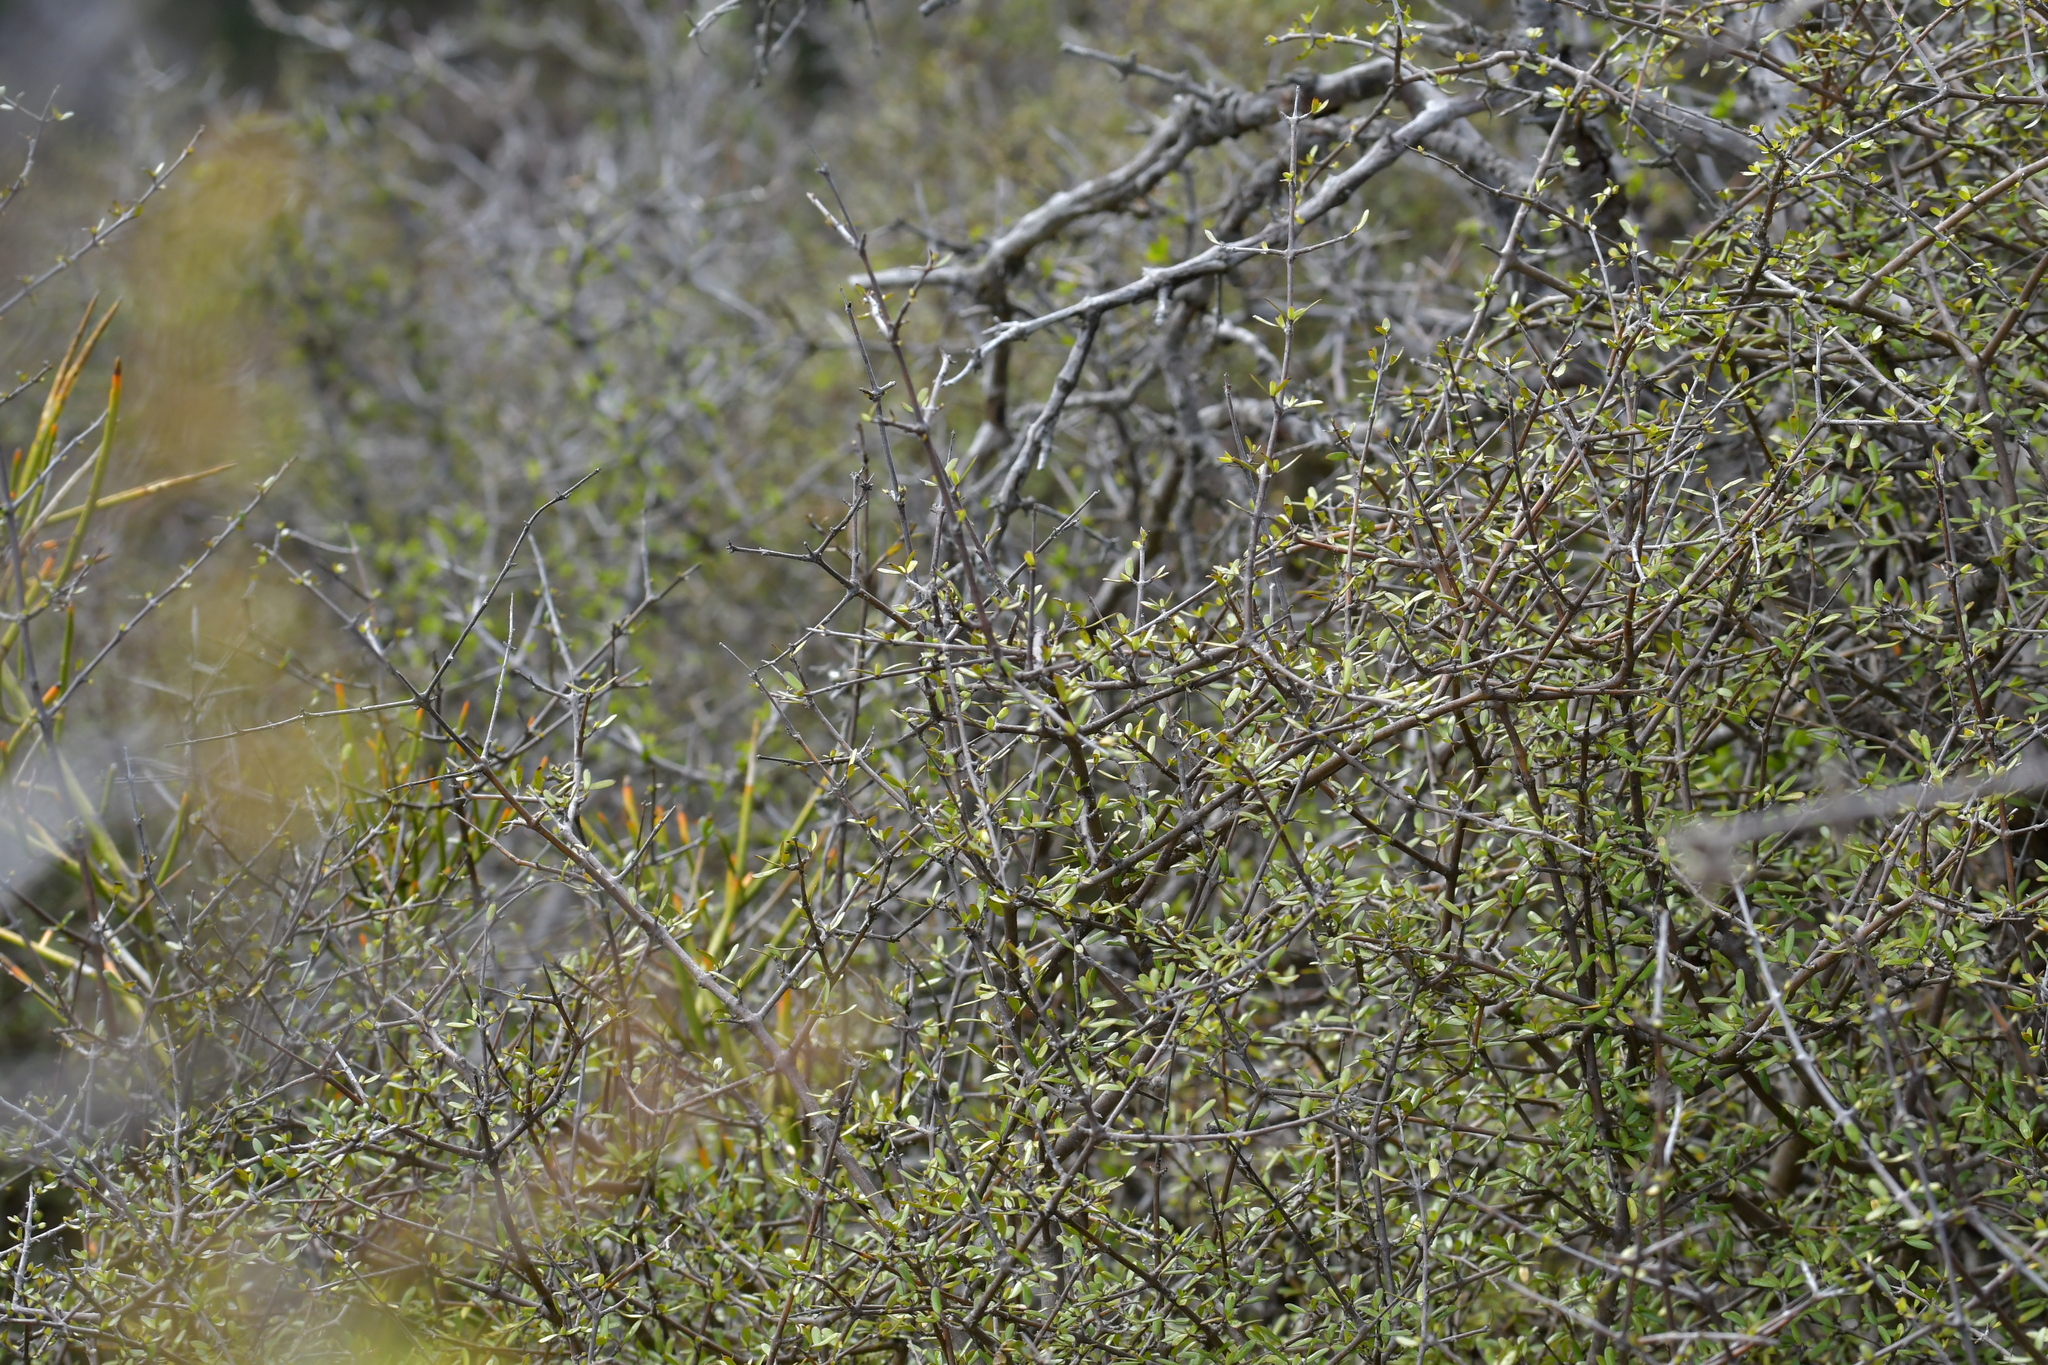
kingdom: Plantae
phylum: Tracheophyta
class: Magnoliopsida
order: Gentianales
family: Rubiaceae
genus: Coprosma
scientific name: Coprosma propinqua
